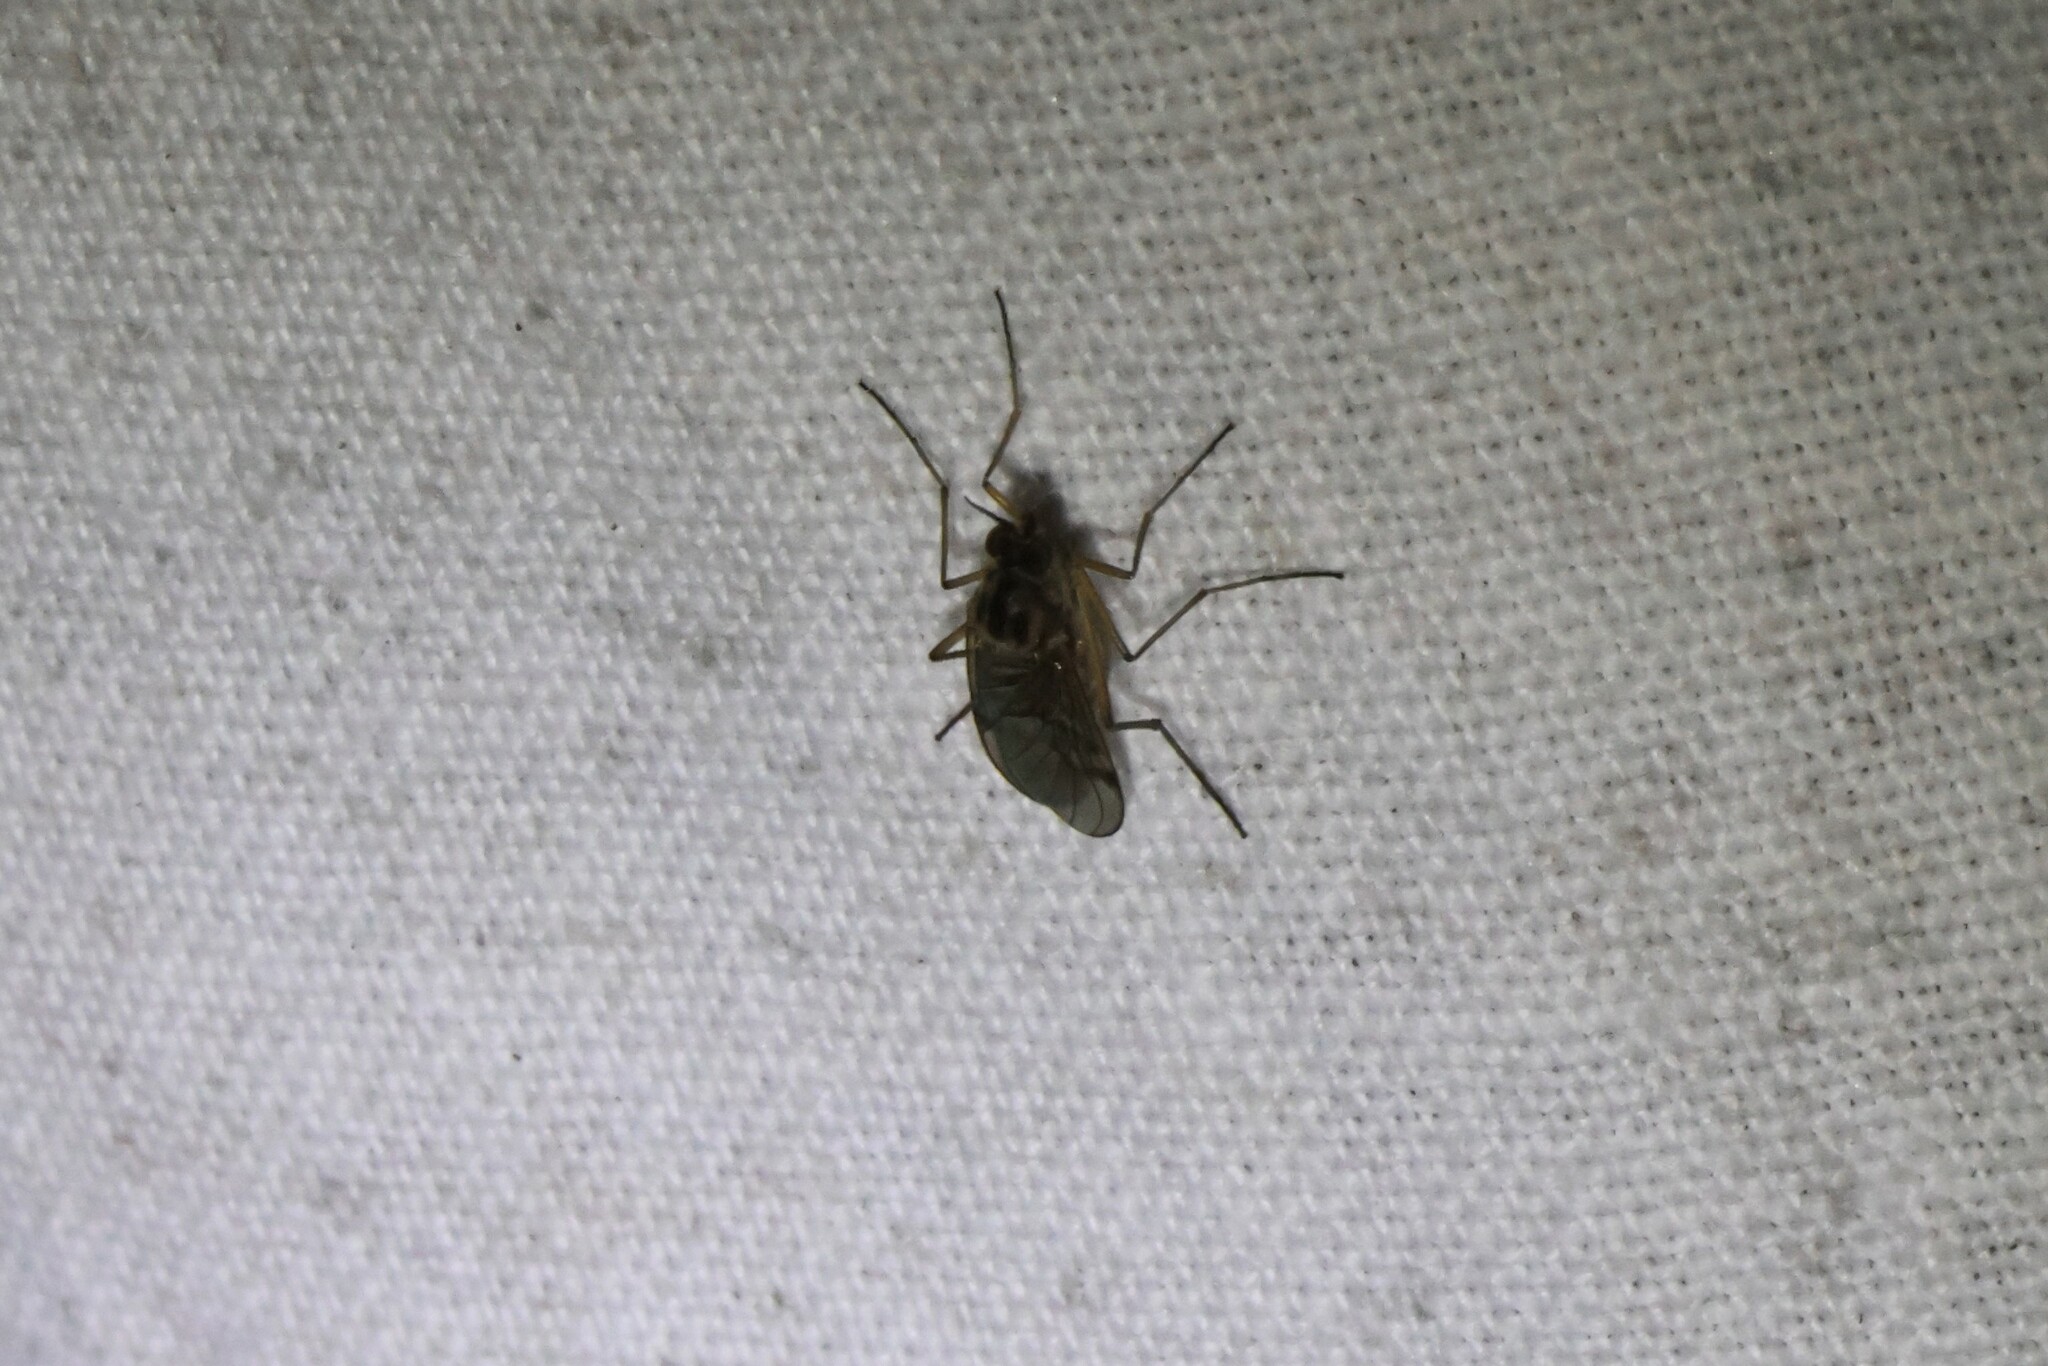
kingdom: Animalia
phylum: Arthropoda
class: Insecta
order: Diptera
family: Anisopodidae
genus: Sylvicola
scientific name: Sylvicola punctatus
